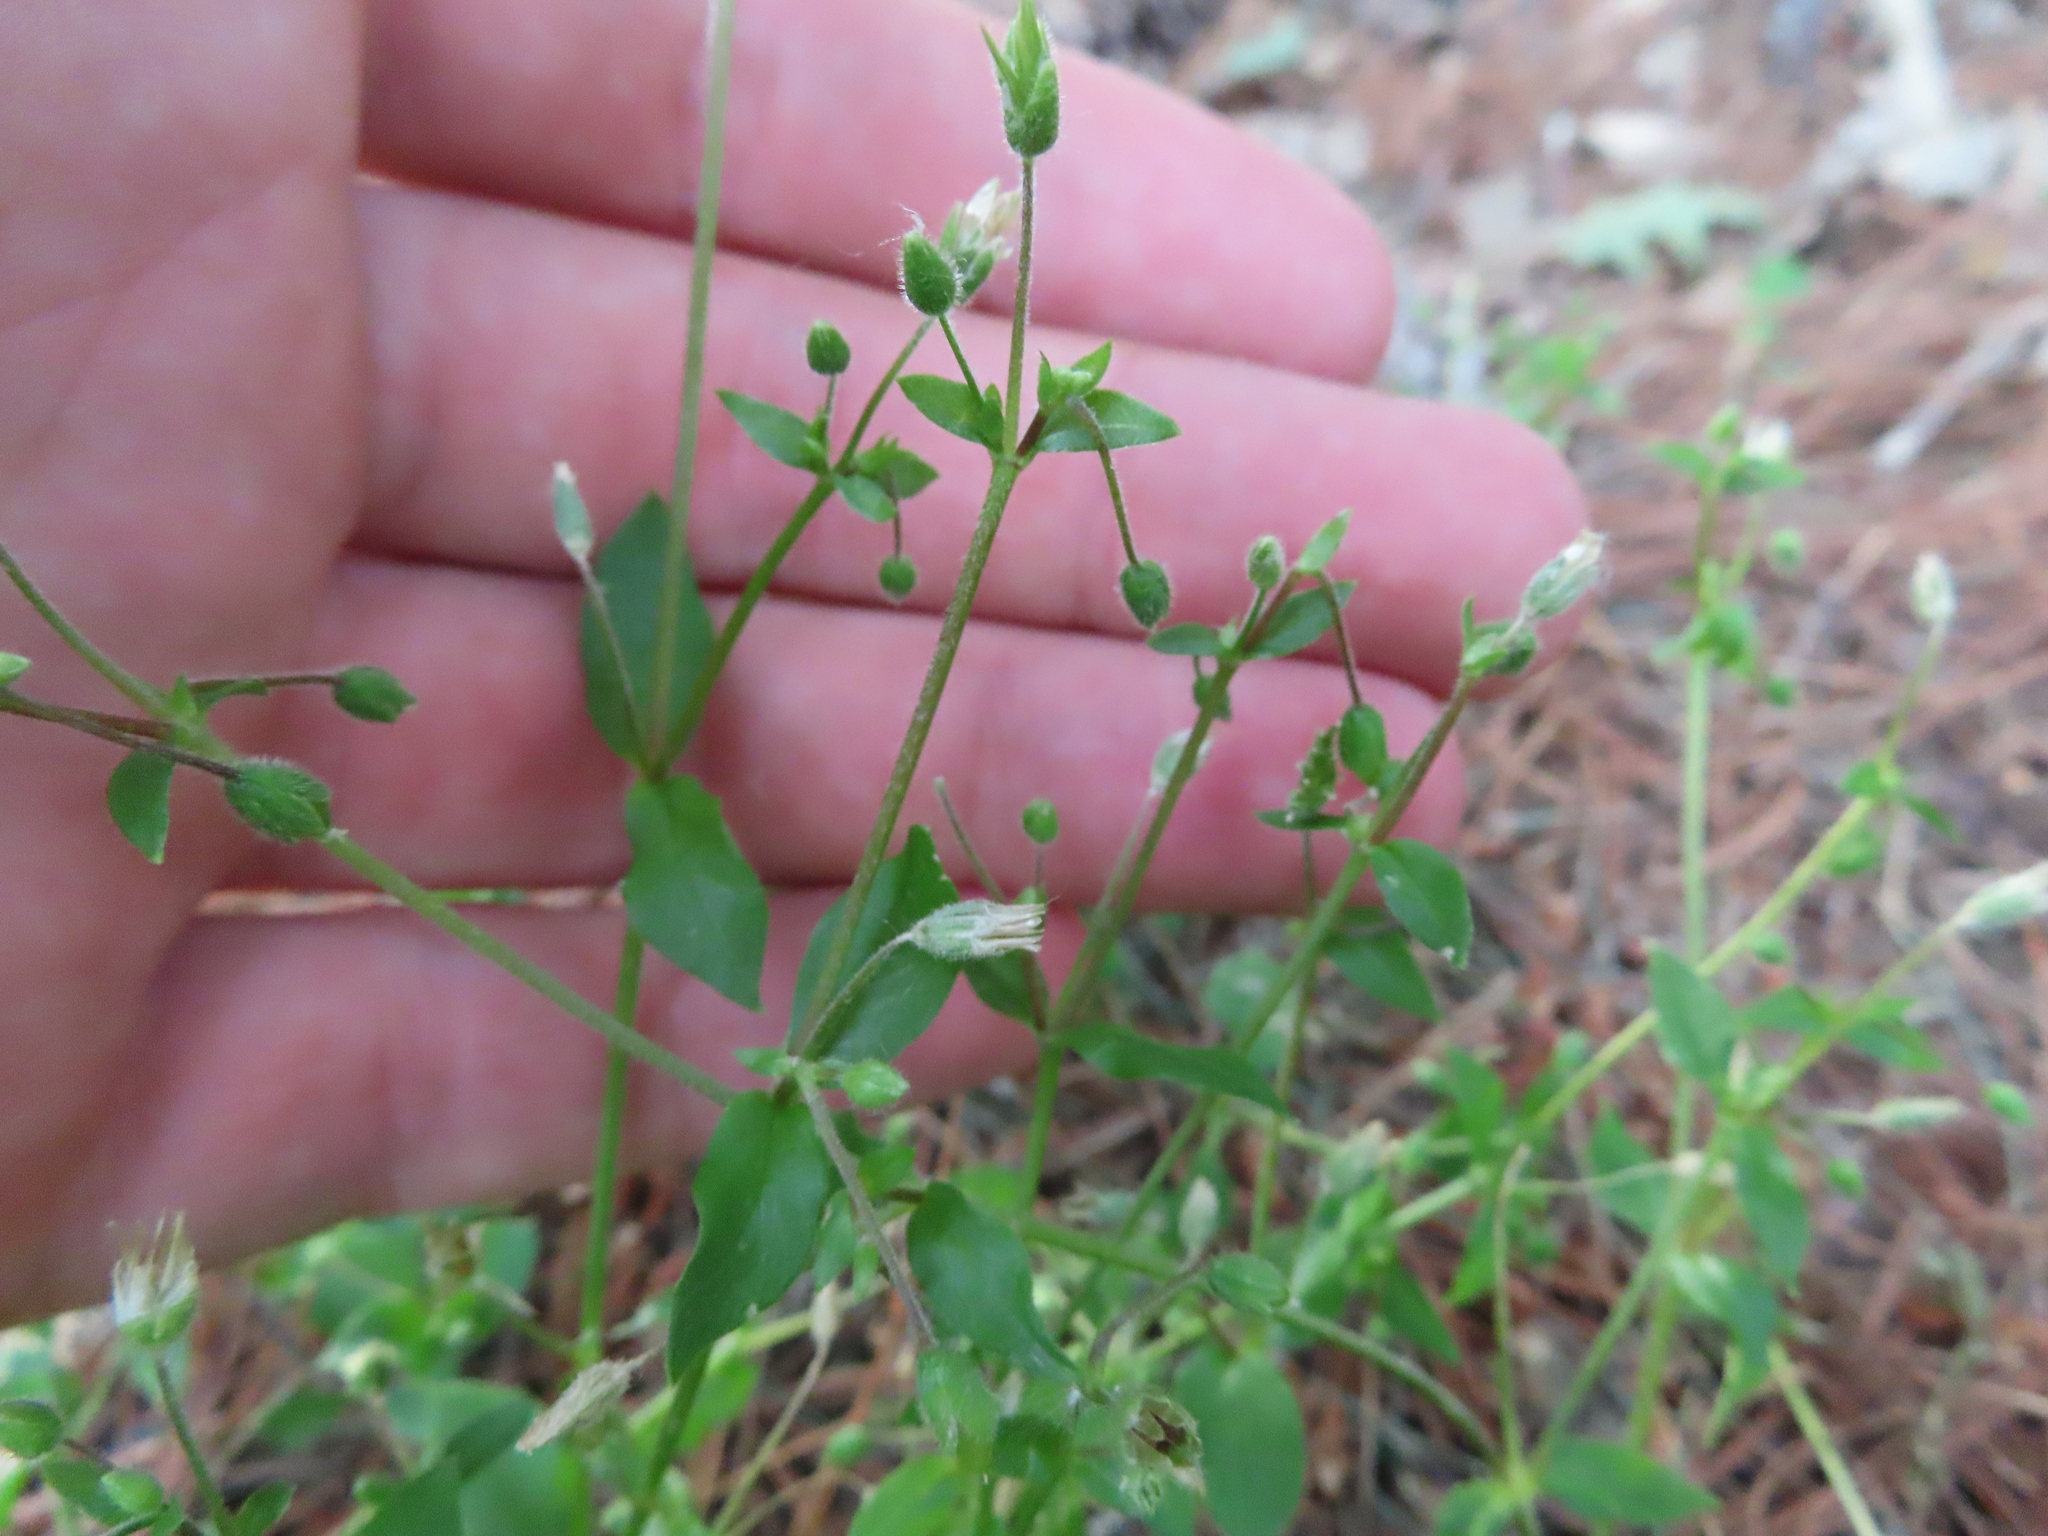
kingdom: Plantae
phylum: Tracheophyta
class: Magnoliopsida
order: Caryophyllales
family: Caryophyllaceae
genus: Stellaria
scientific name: Stellaria media
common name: Common chickweed
